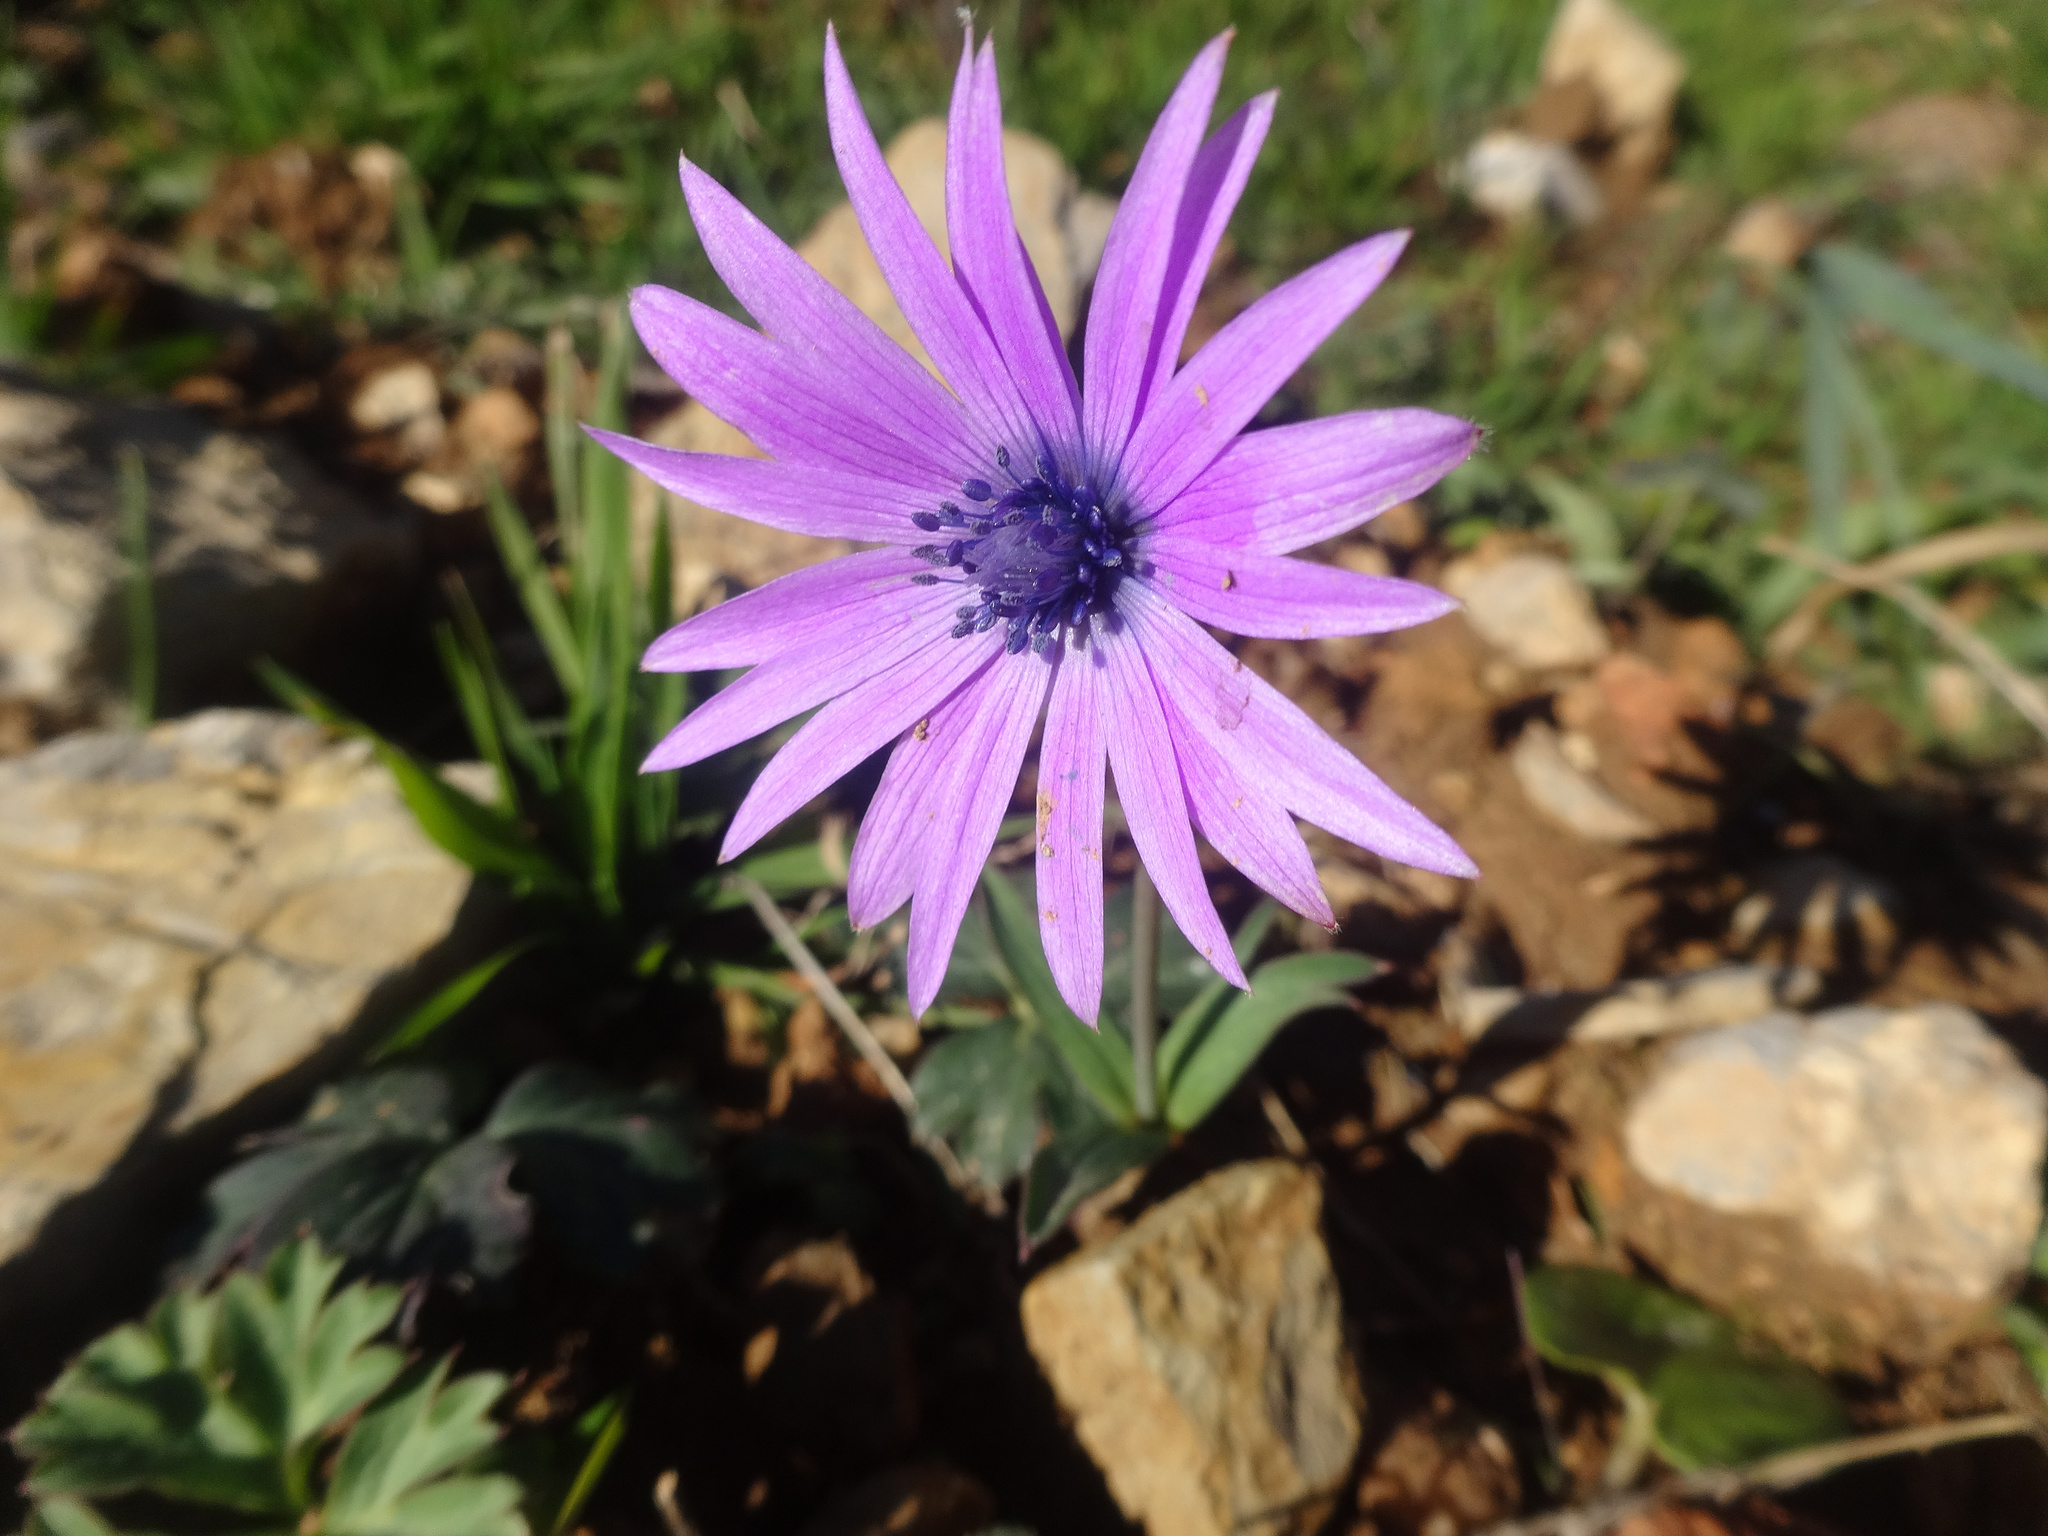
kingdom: Plantae
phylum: Tracheophyta
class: Magnoliopsida
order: Ranunculales
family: Ranunculaceae
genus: Anemone
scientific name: Anemone hortensis
